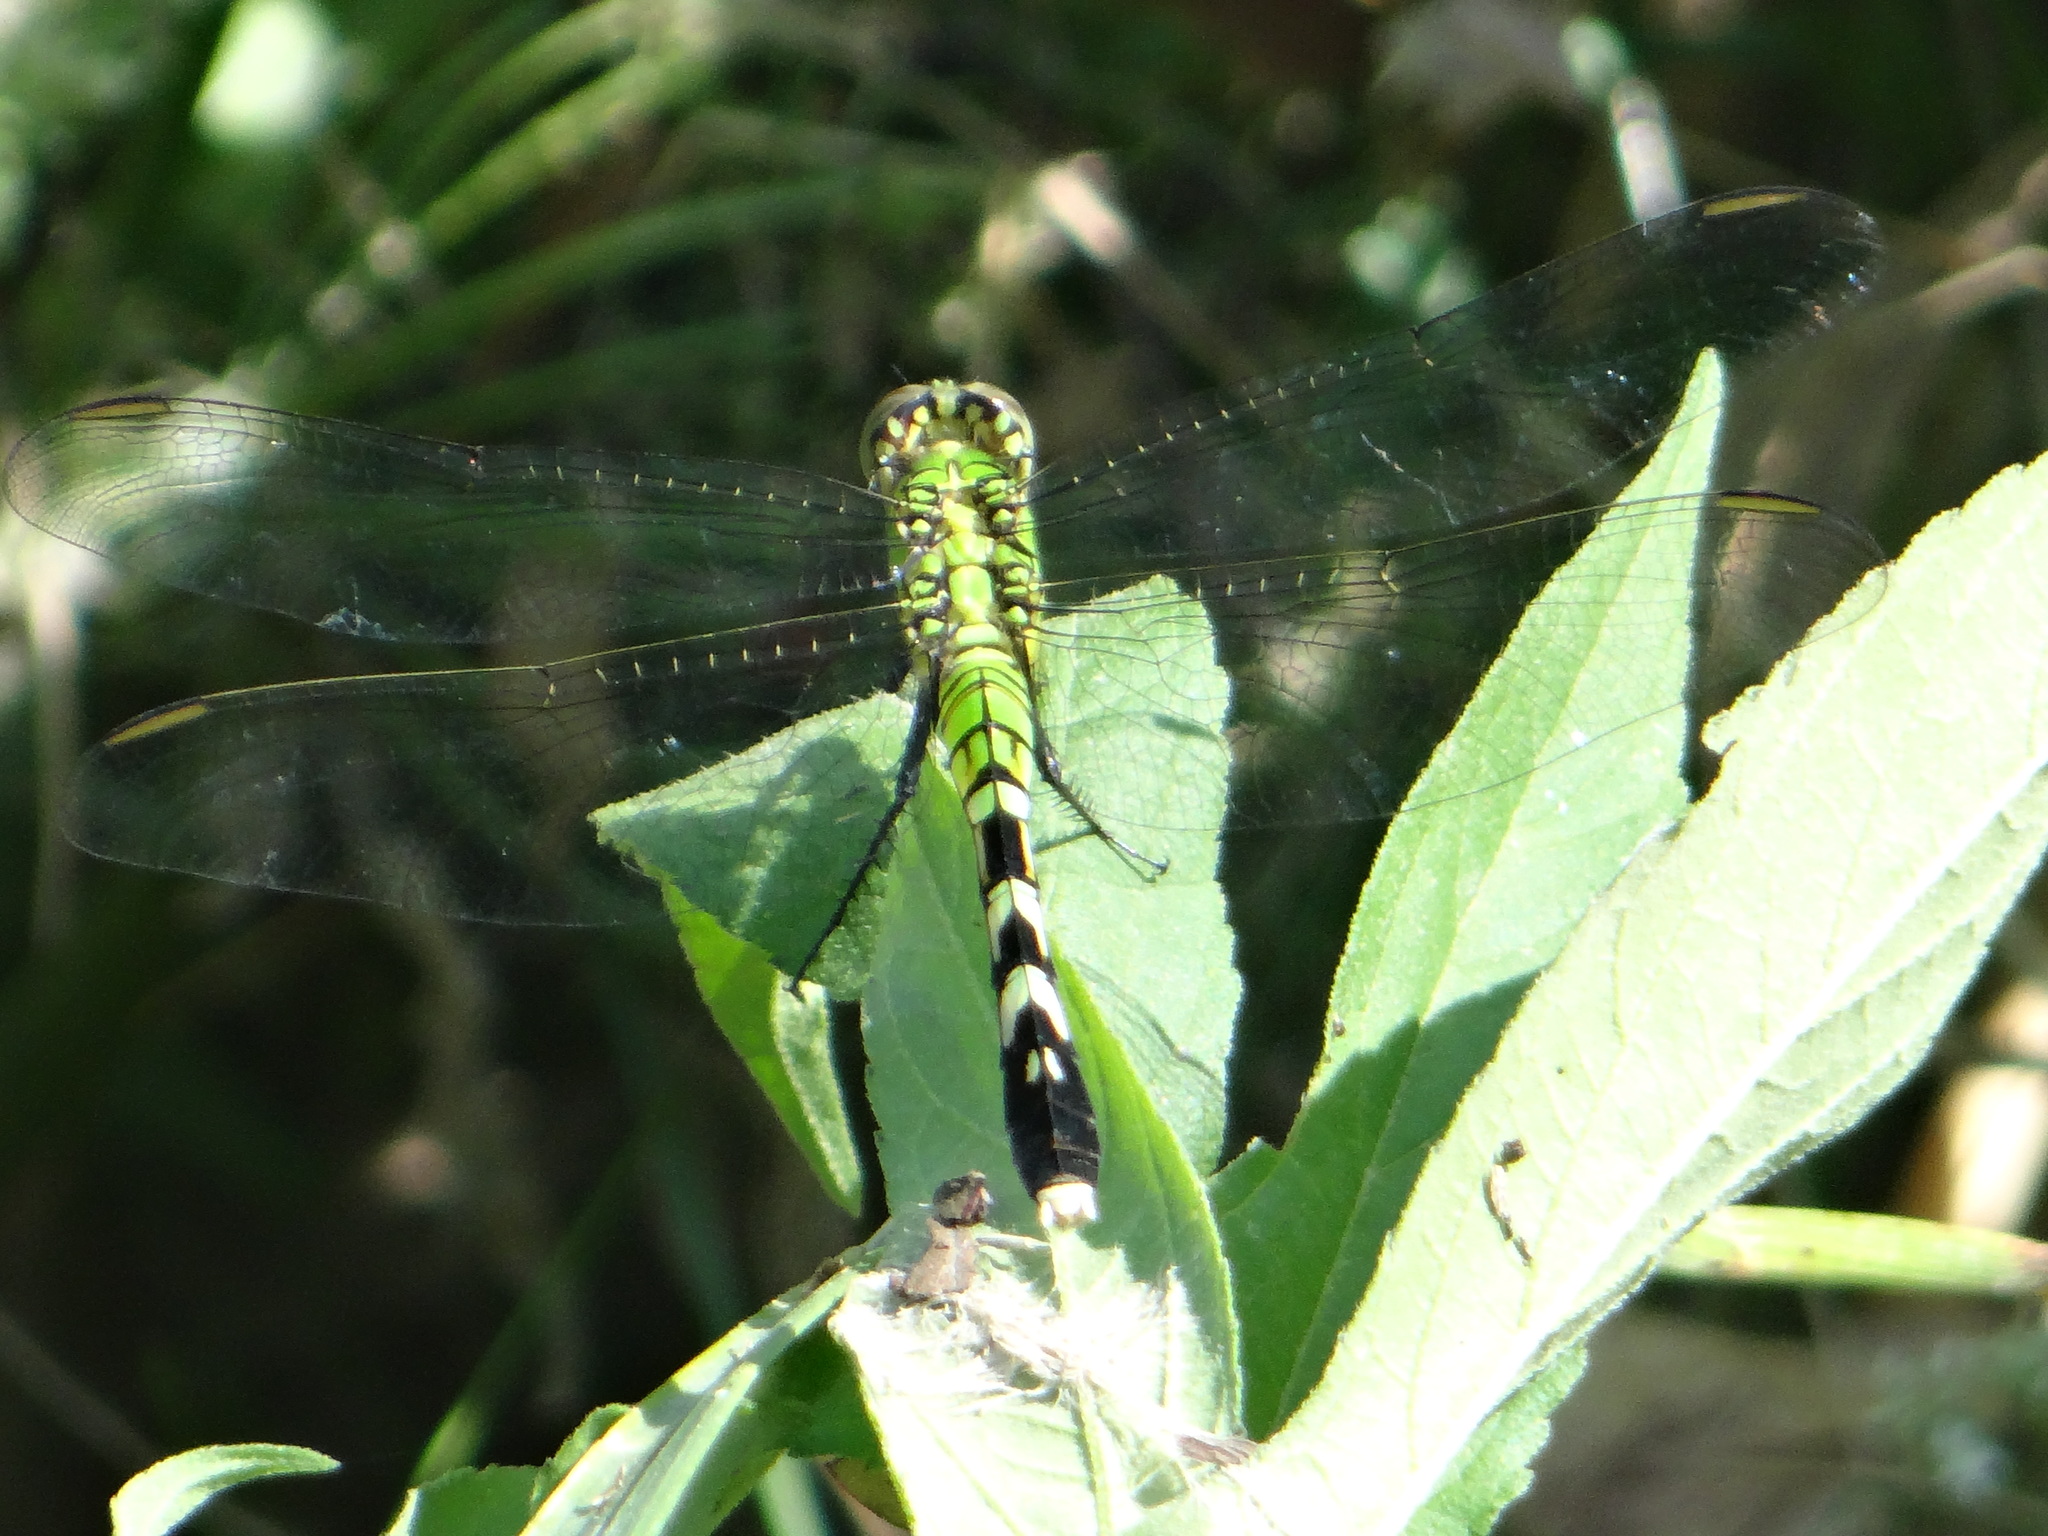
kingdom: Animalia
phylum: Arthropoda
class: Insecta
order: Odonata
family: Libellulidae
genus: Erythemis
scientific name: Erythemis simplicicollis
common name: Eastern pondhawk
